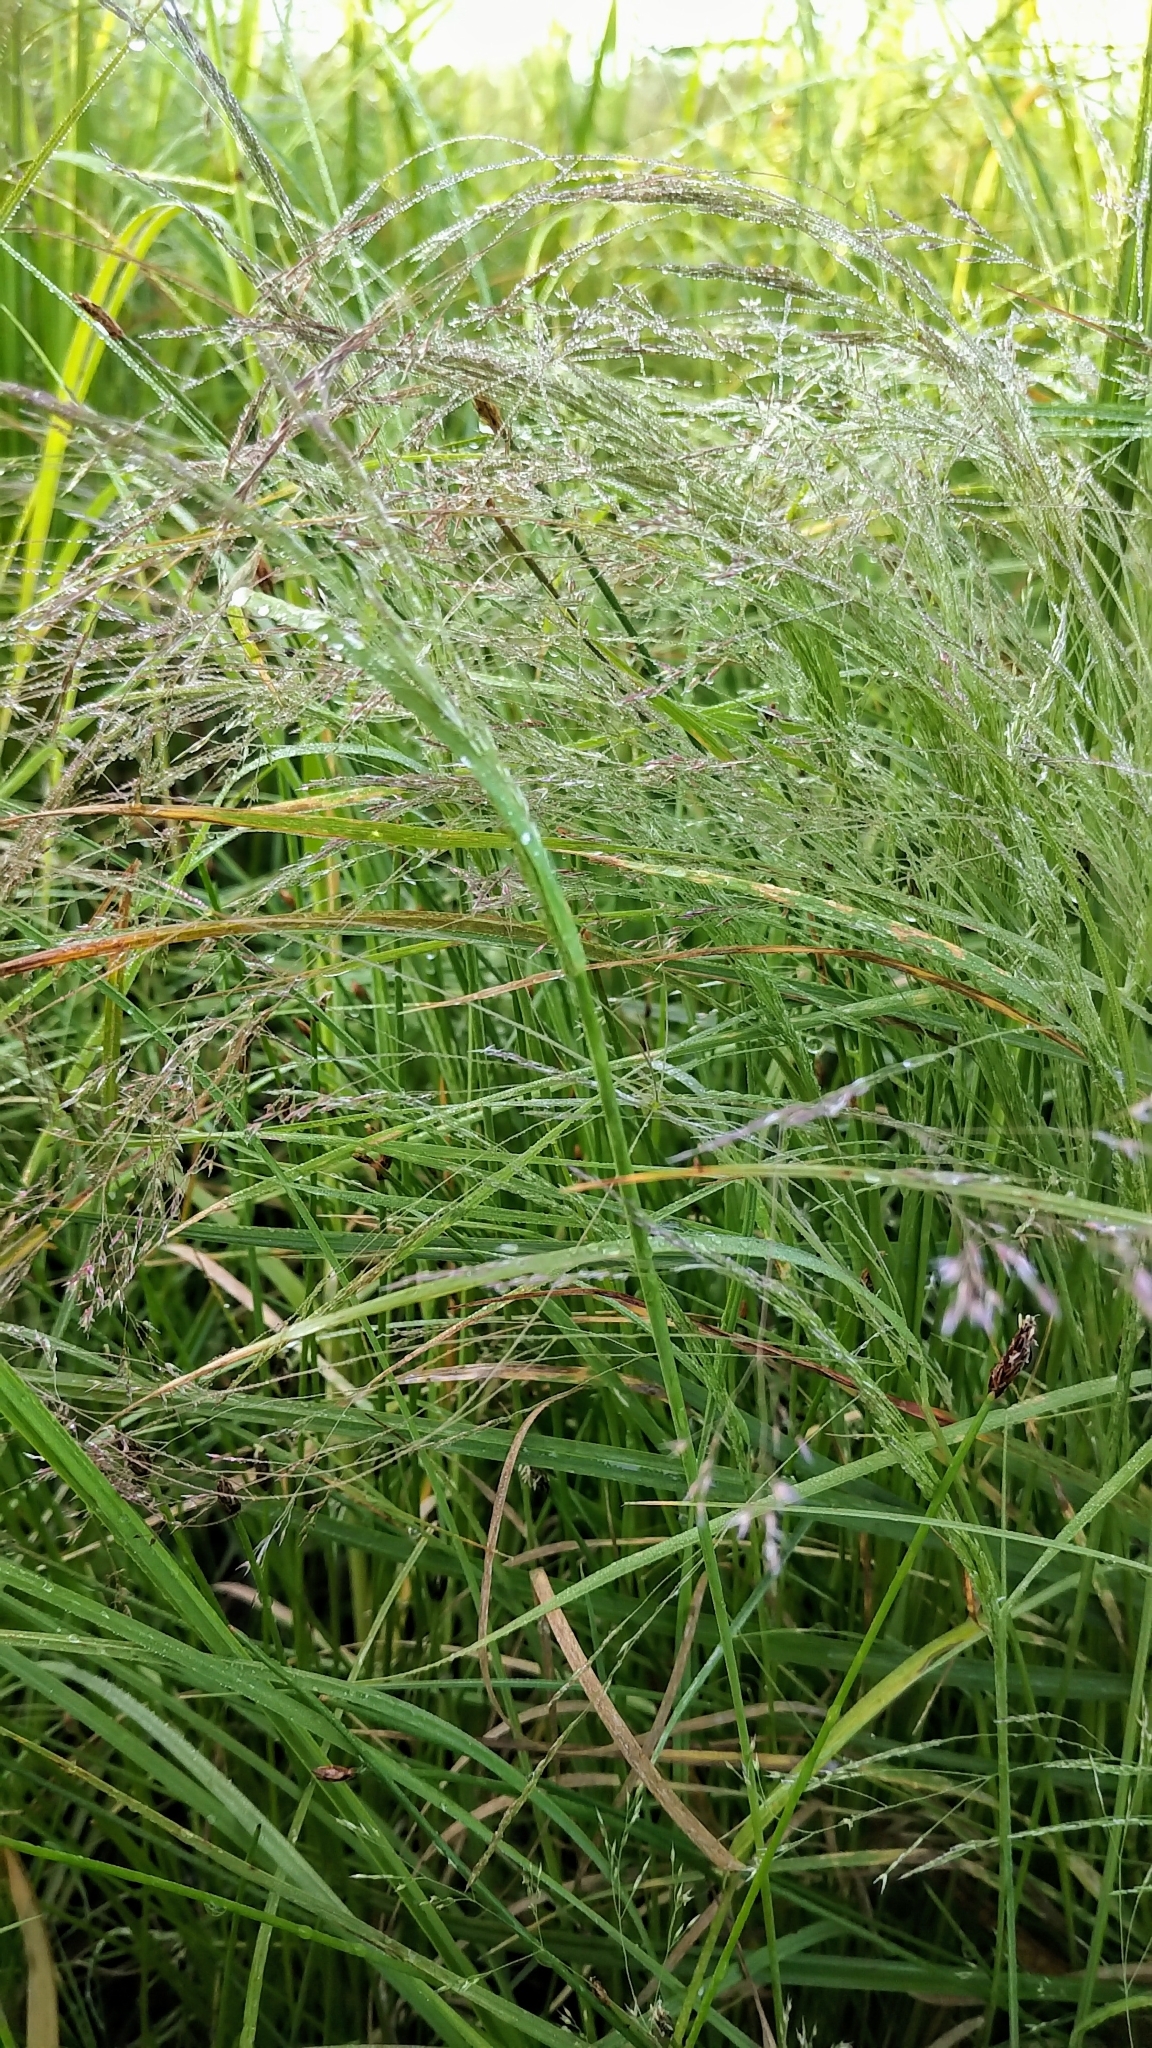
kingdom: Plantae
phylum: Tracheophyta
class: Liliopsida
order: Poales
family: Poaceae
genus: Agrostis
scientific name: Agrostis scabra
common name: Rough bent
